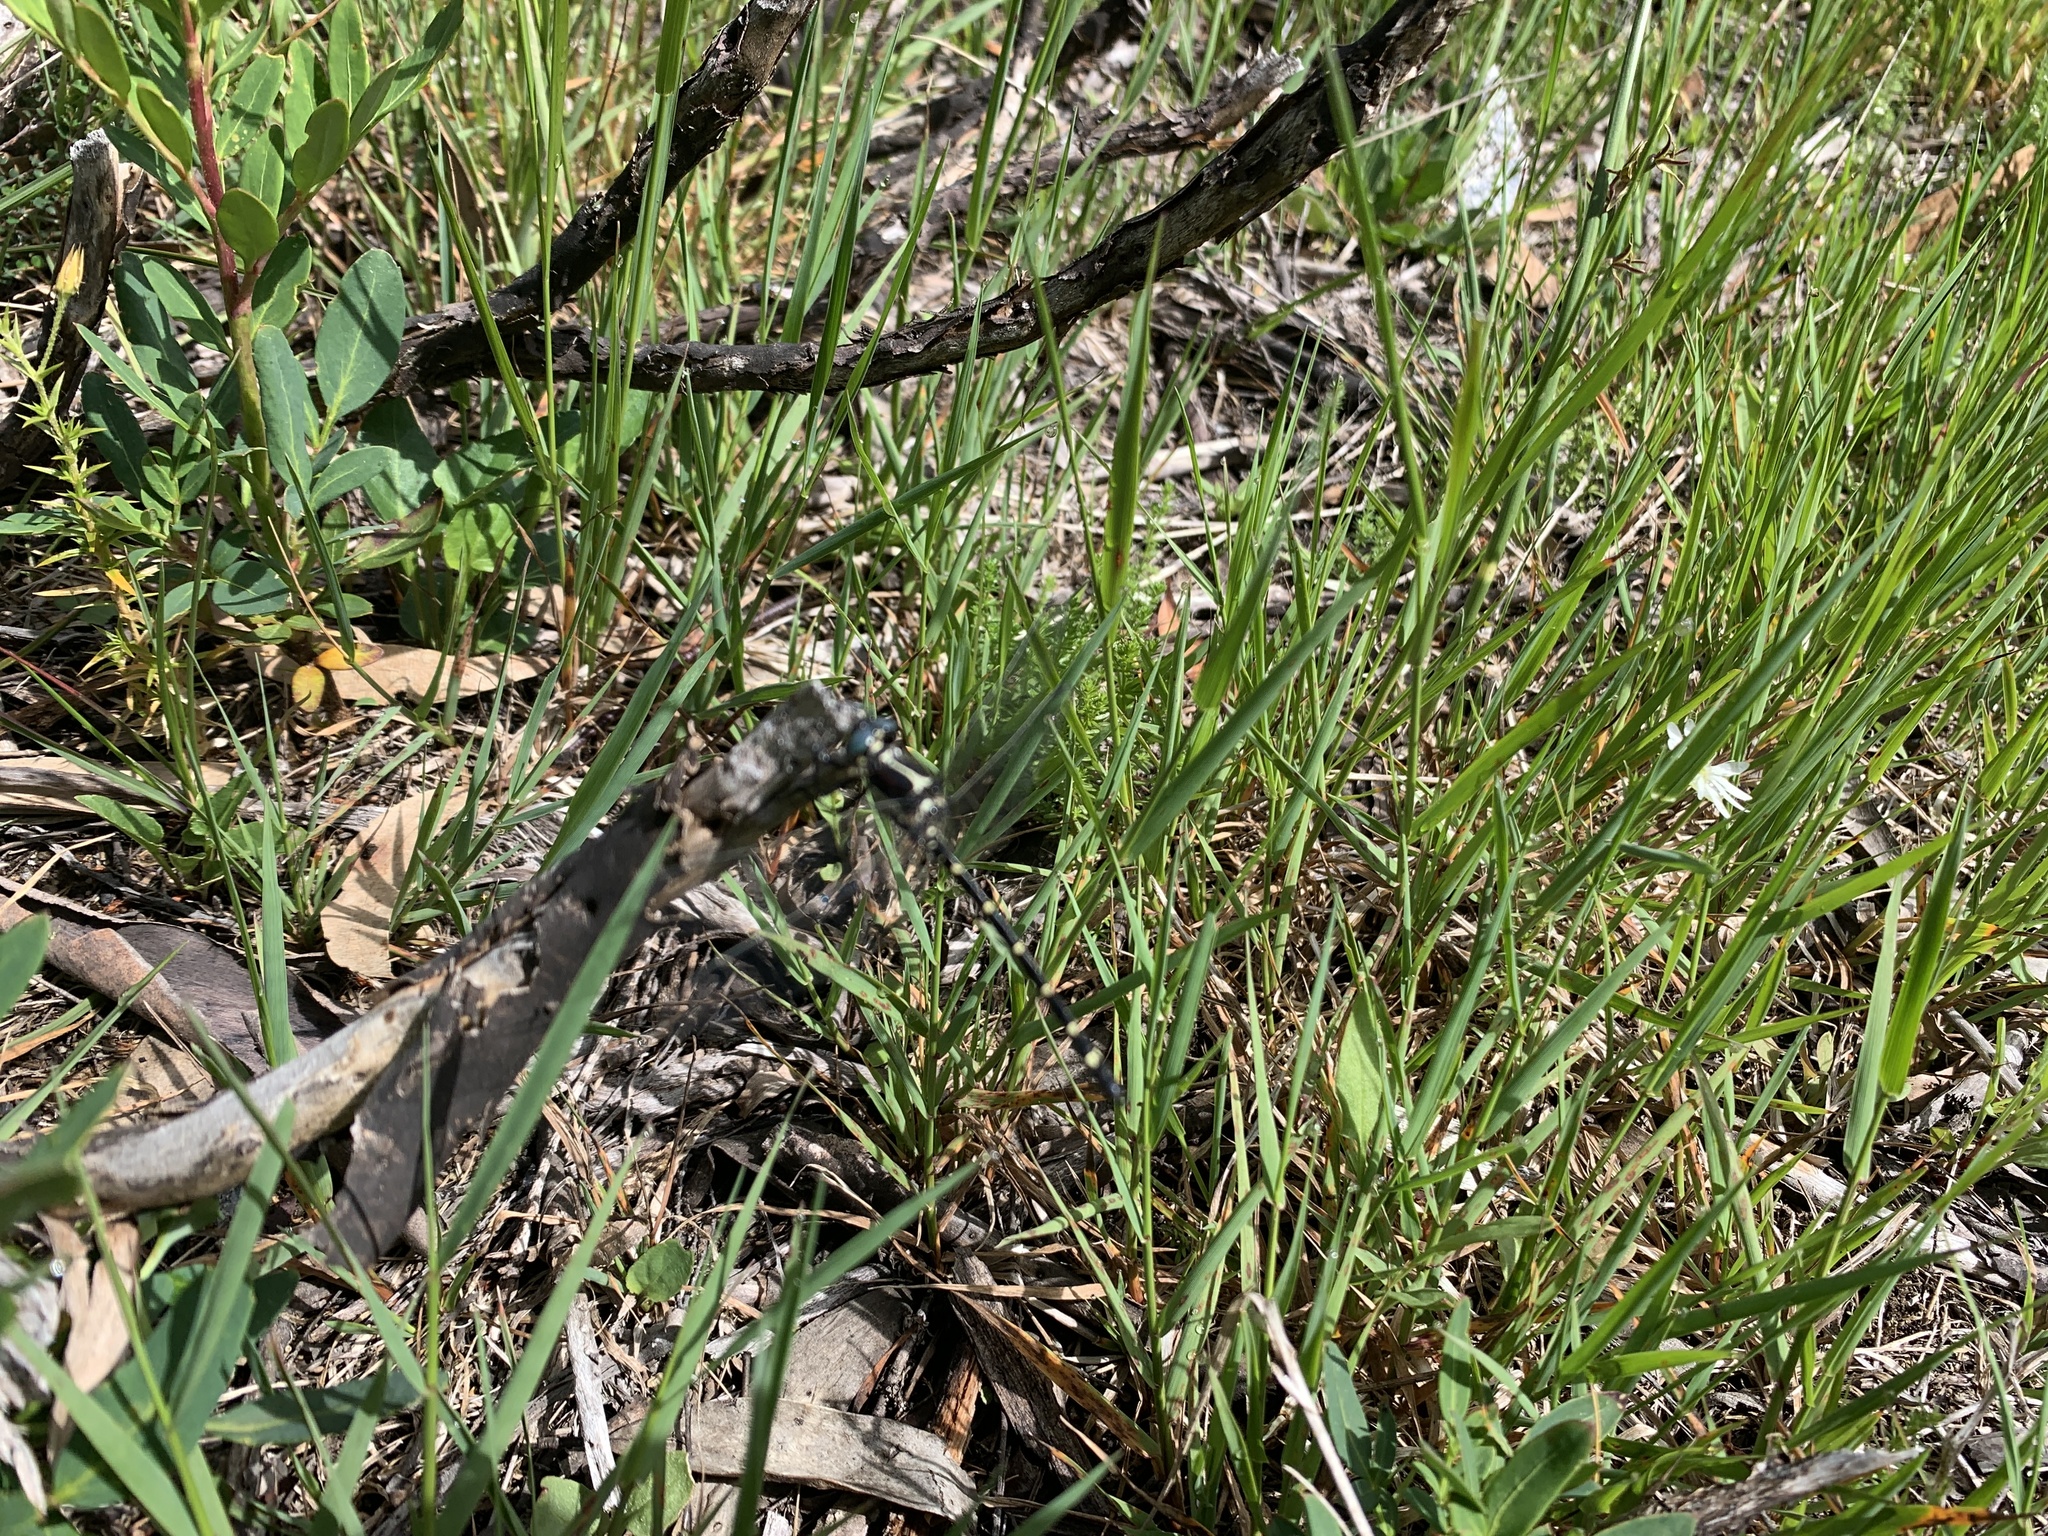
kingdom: Animalia
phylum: Arthropoda
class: Insecta
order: Odonata
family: Synthemistidae
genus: Eusynthemis
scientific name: Eusynthemis guttata
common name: Southern tigertail
